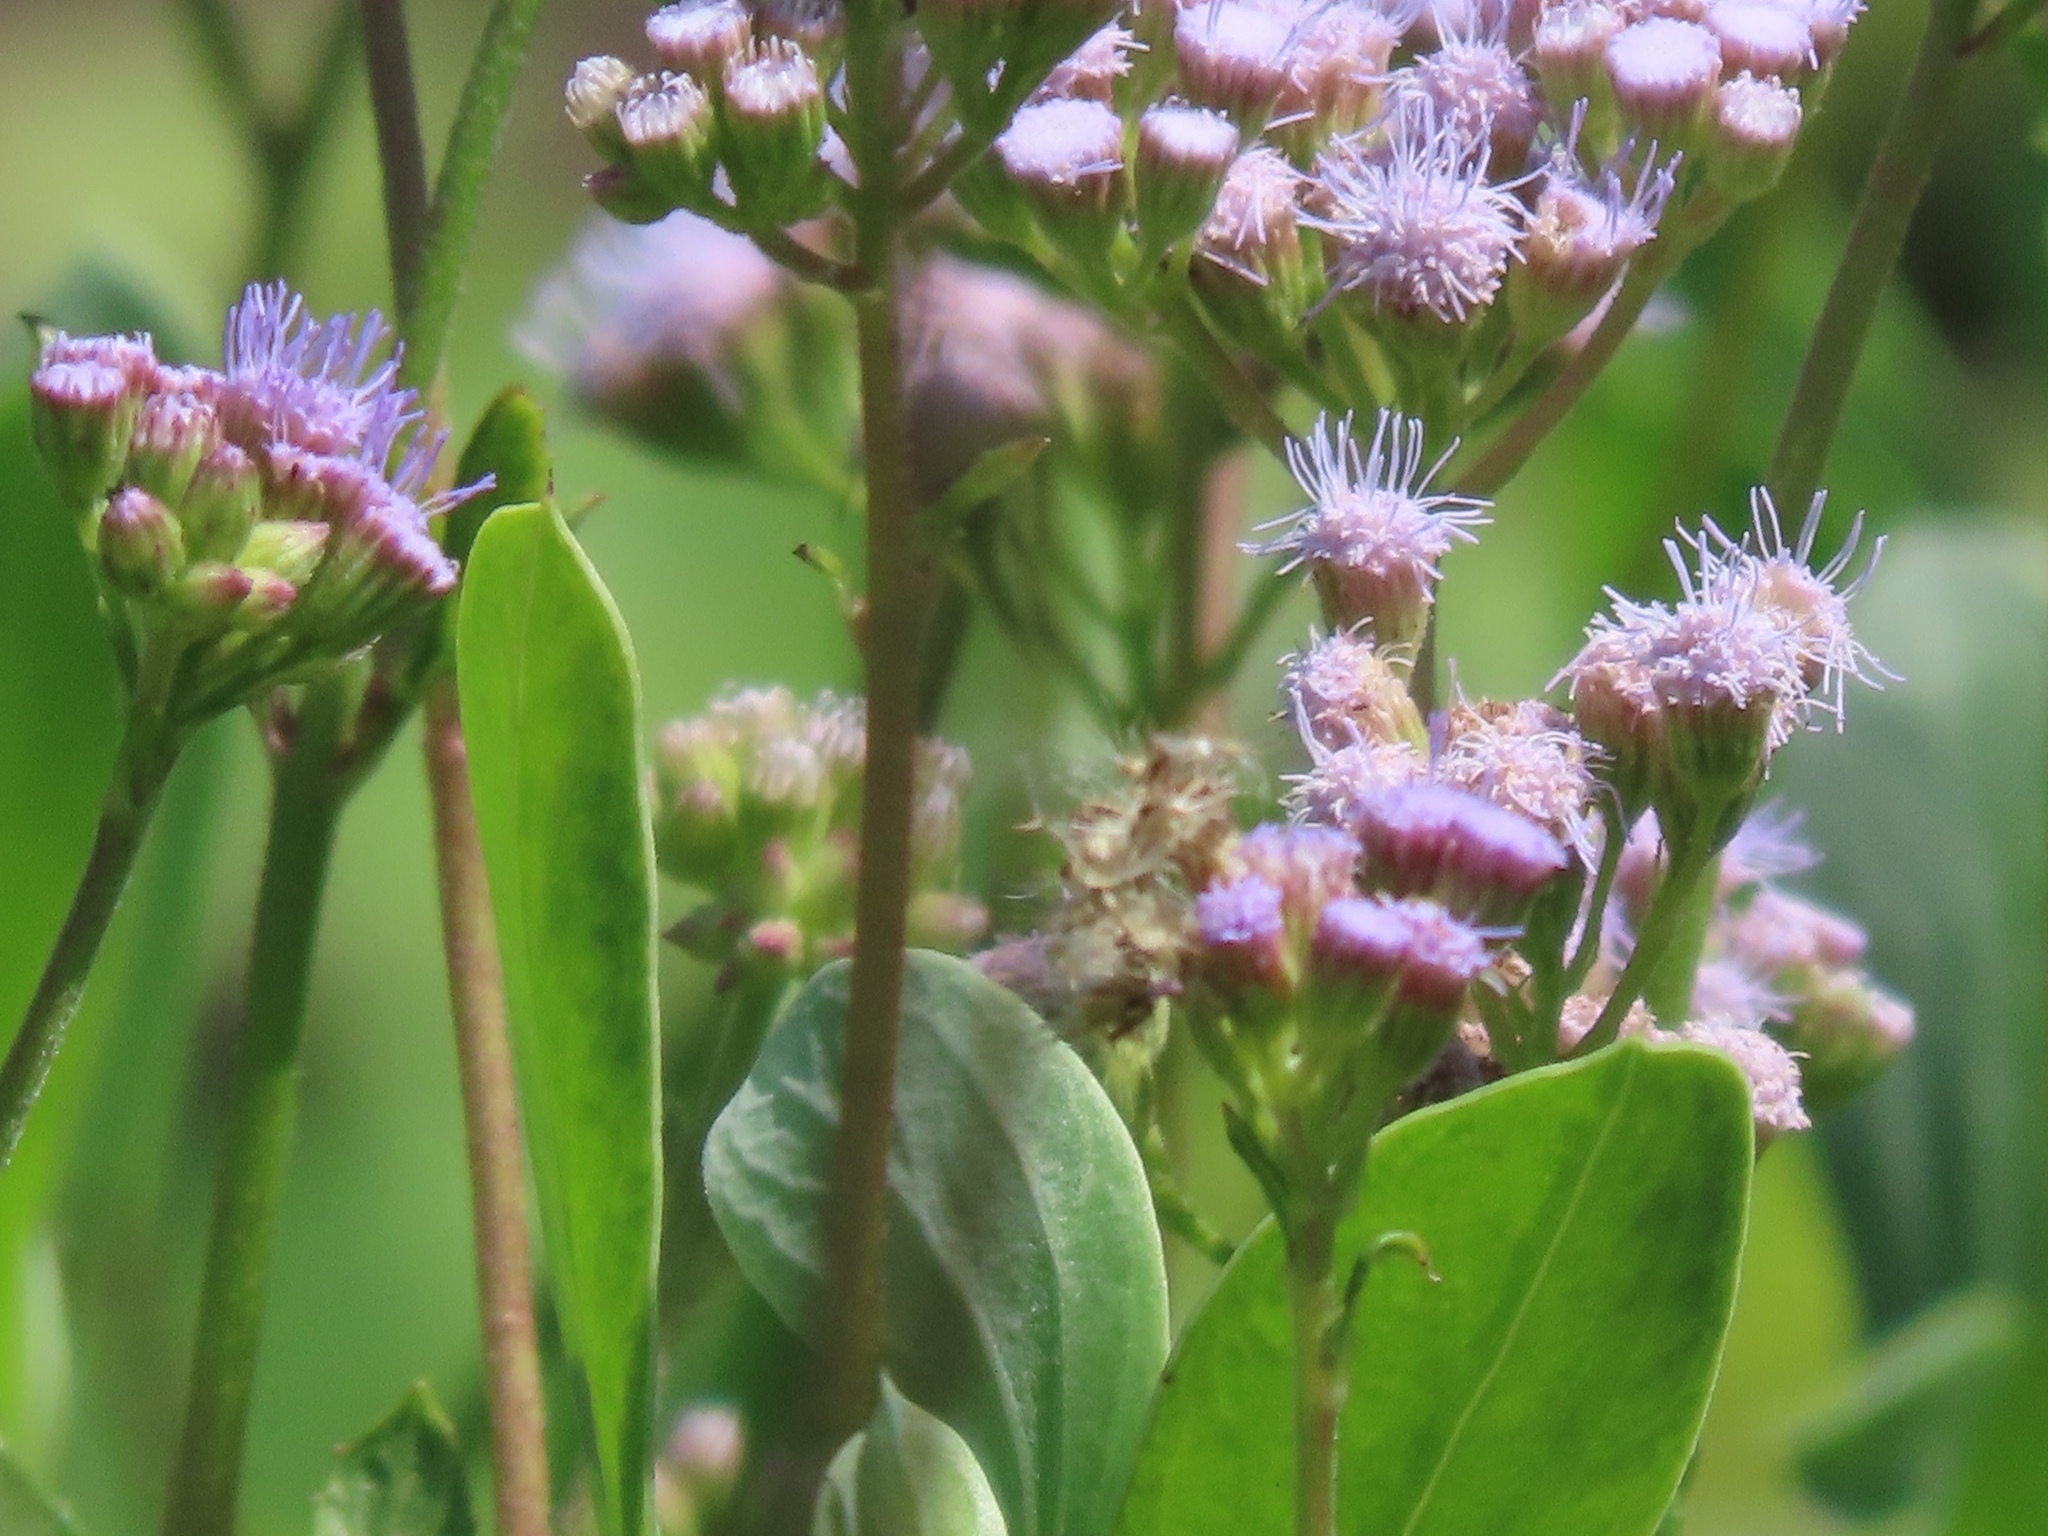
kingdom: Plantae
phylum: Tracheophyta
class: Magnoliopsida
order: Asterales
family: Asteraceae
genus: Conoclinium
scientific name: Conoclinium betonicifolium
